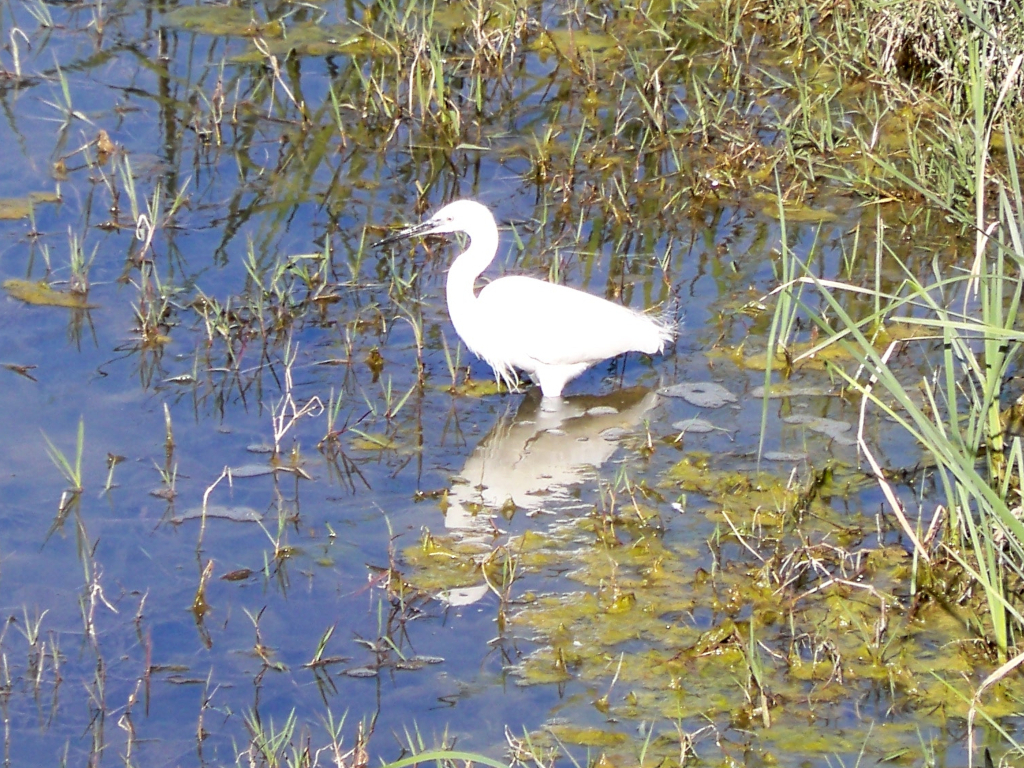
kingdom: Animalia
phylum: Chordata
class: Aves
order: Pelecaniformes
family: Ardeidae
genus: Egretta
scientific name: Egretta garzetta
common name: Little egret
